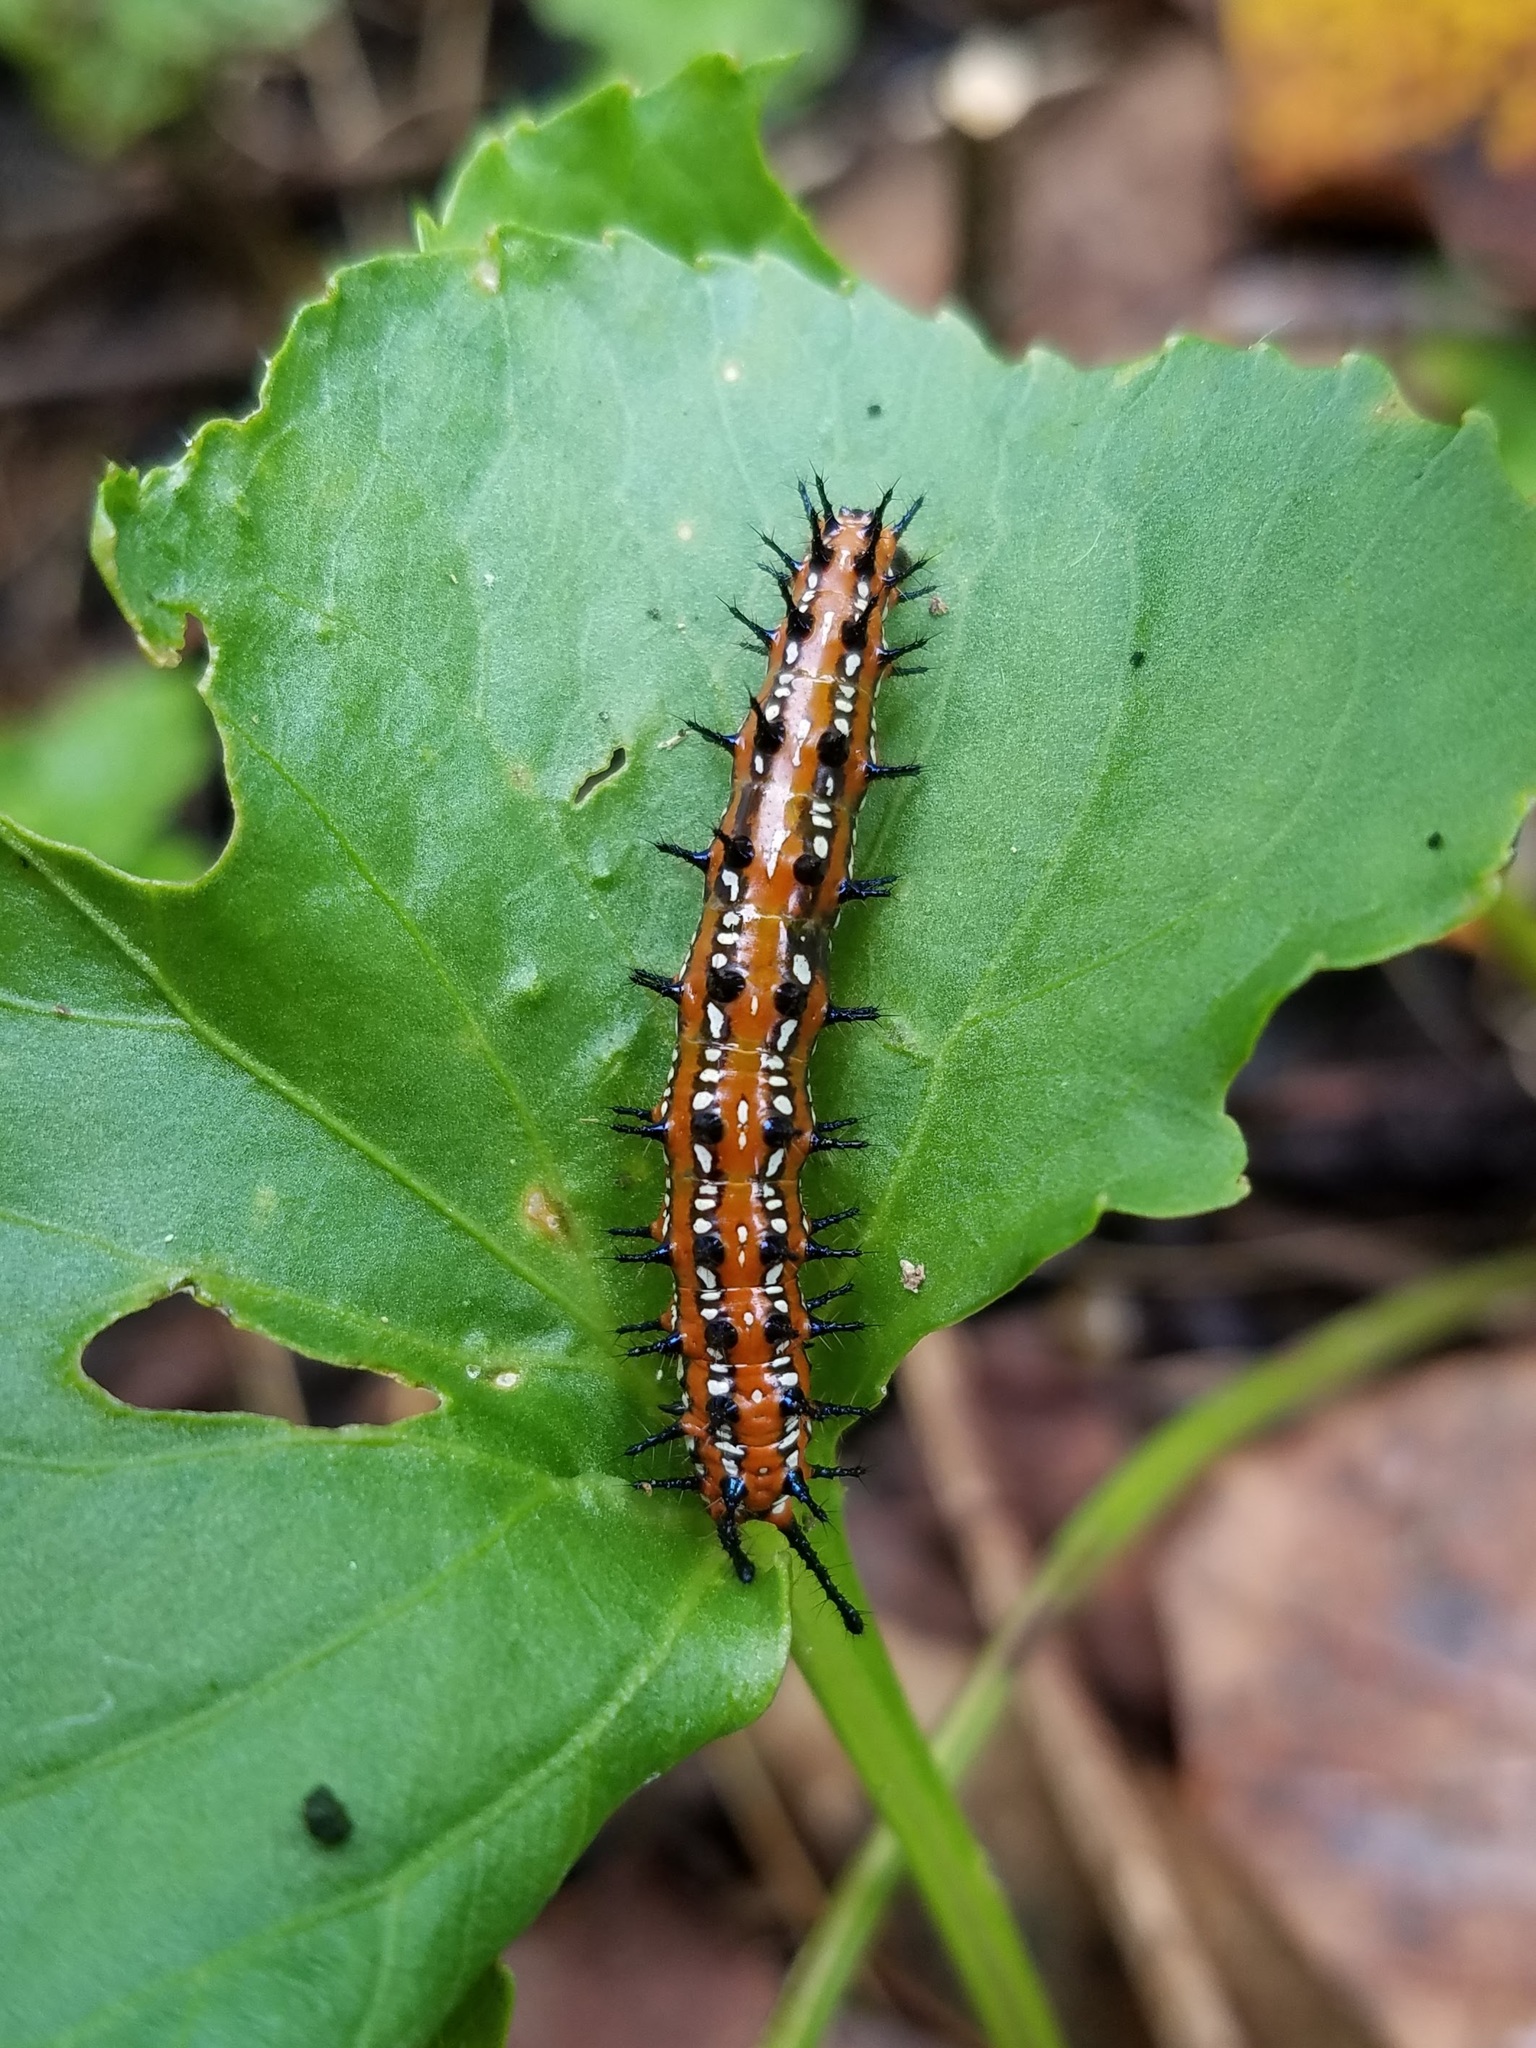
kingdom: Animalia
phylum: Arthropoda
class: Insecta
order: Lepidoptera
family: Nymphalidae
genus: Euptoieta
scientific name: Euptoieta claudia
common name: Variegated fritillary
